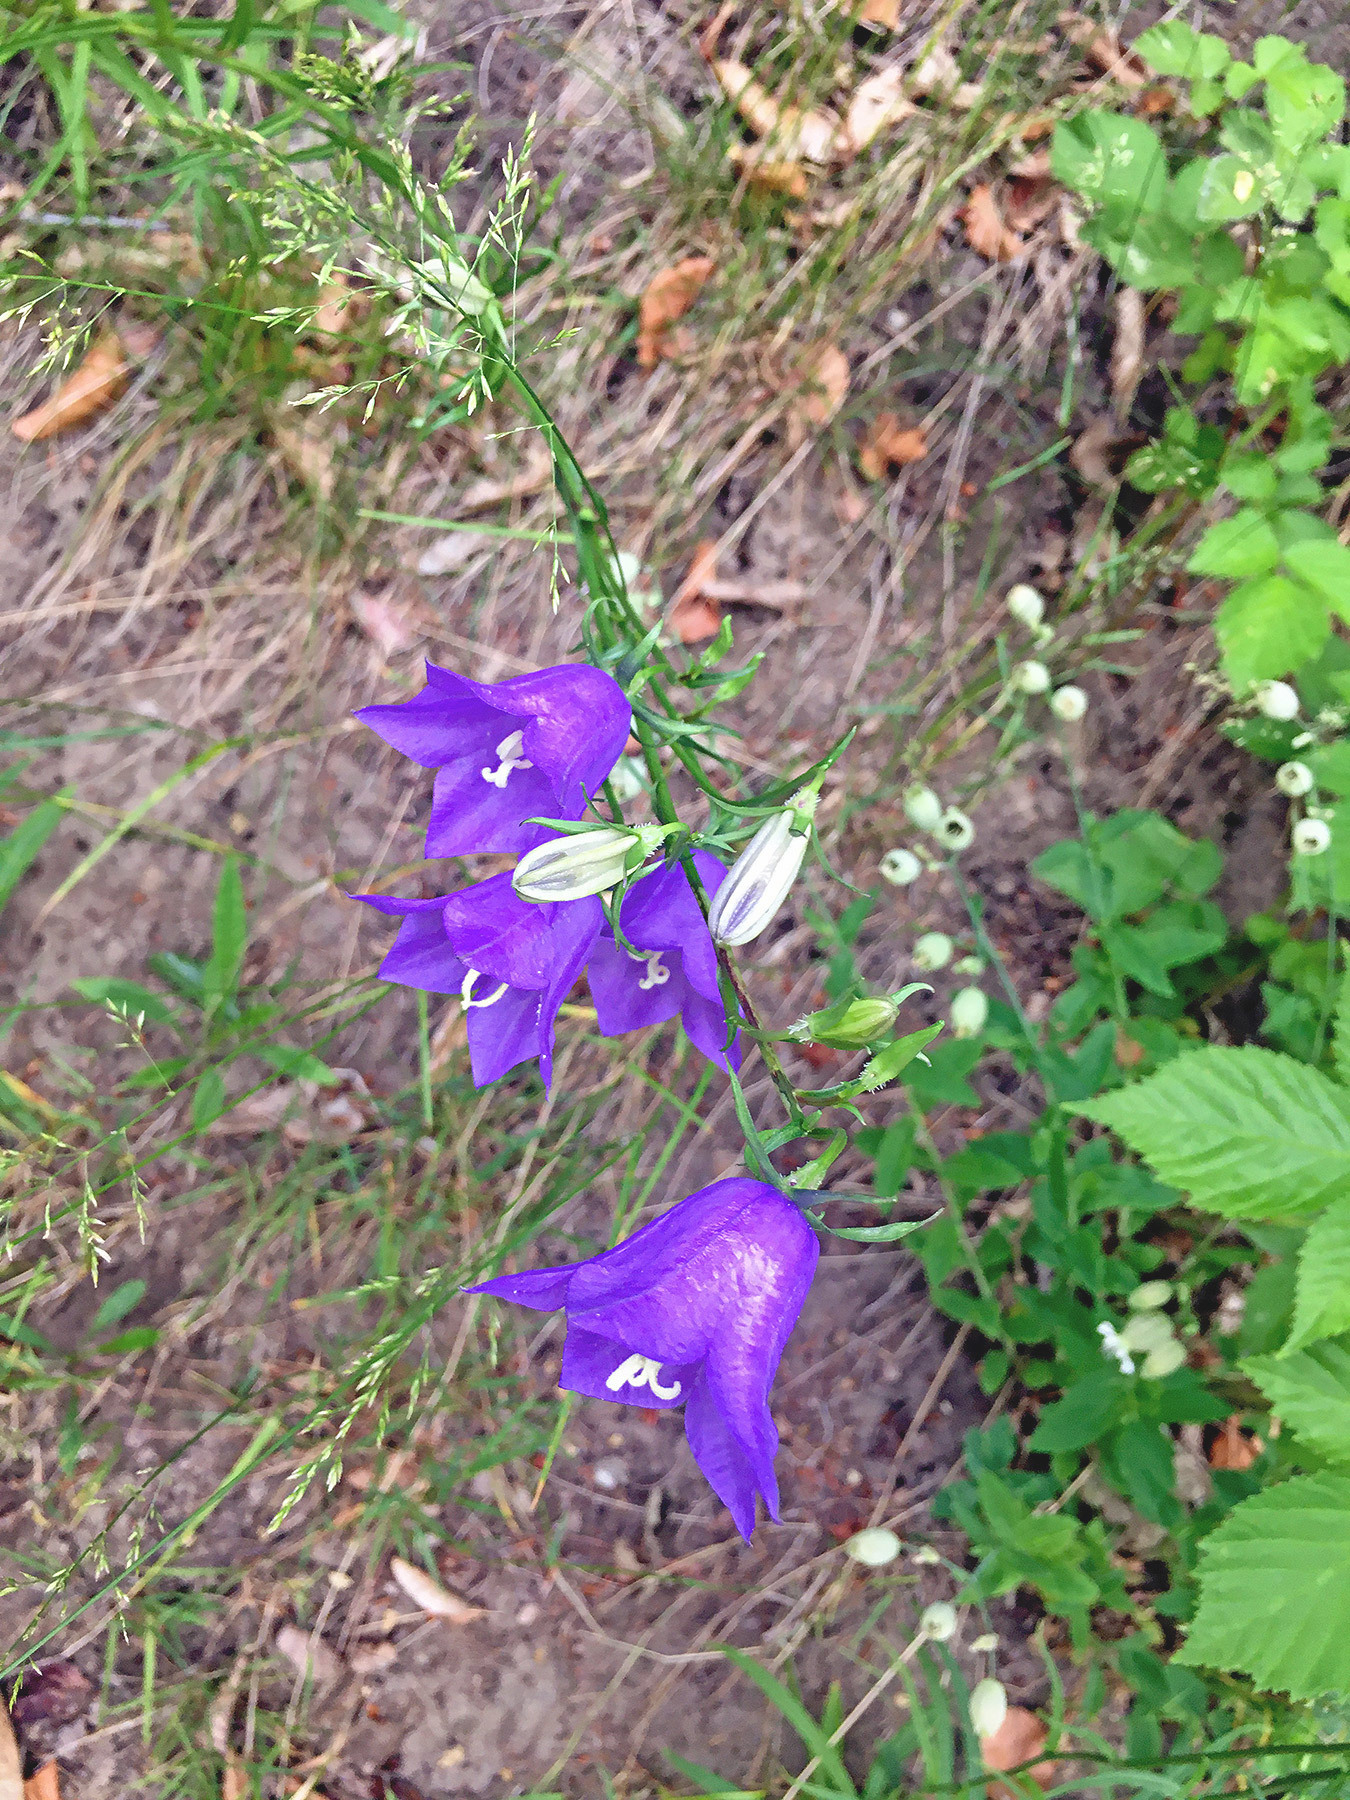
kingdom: Plantae
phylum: Tracheophyta
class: Magnoliopsida
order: Asterales
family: Campanulaceae
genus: Campanula
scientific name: Campanula persicifolia
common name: Peach-leaved bellflower
